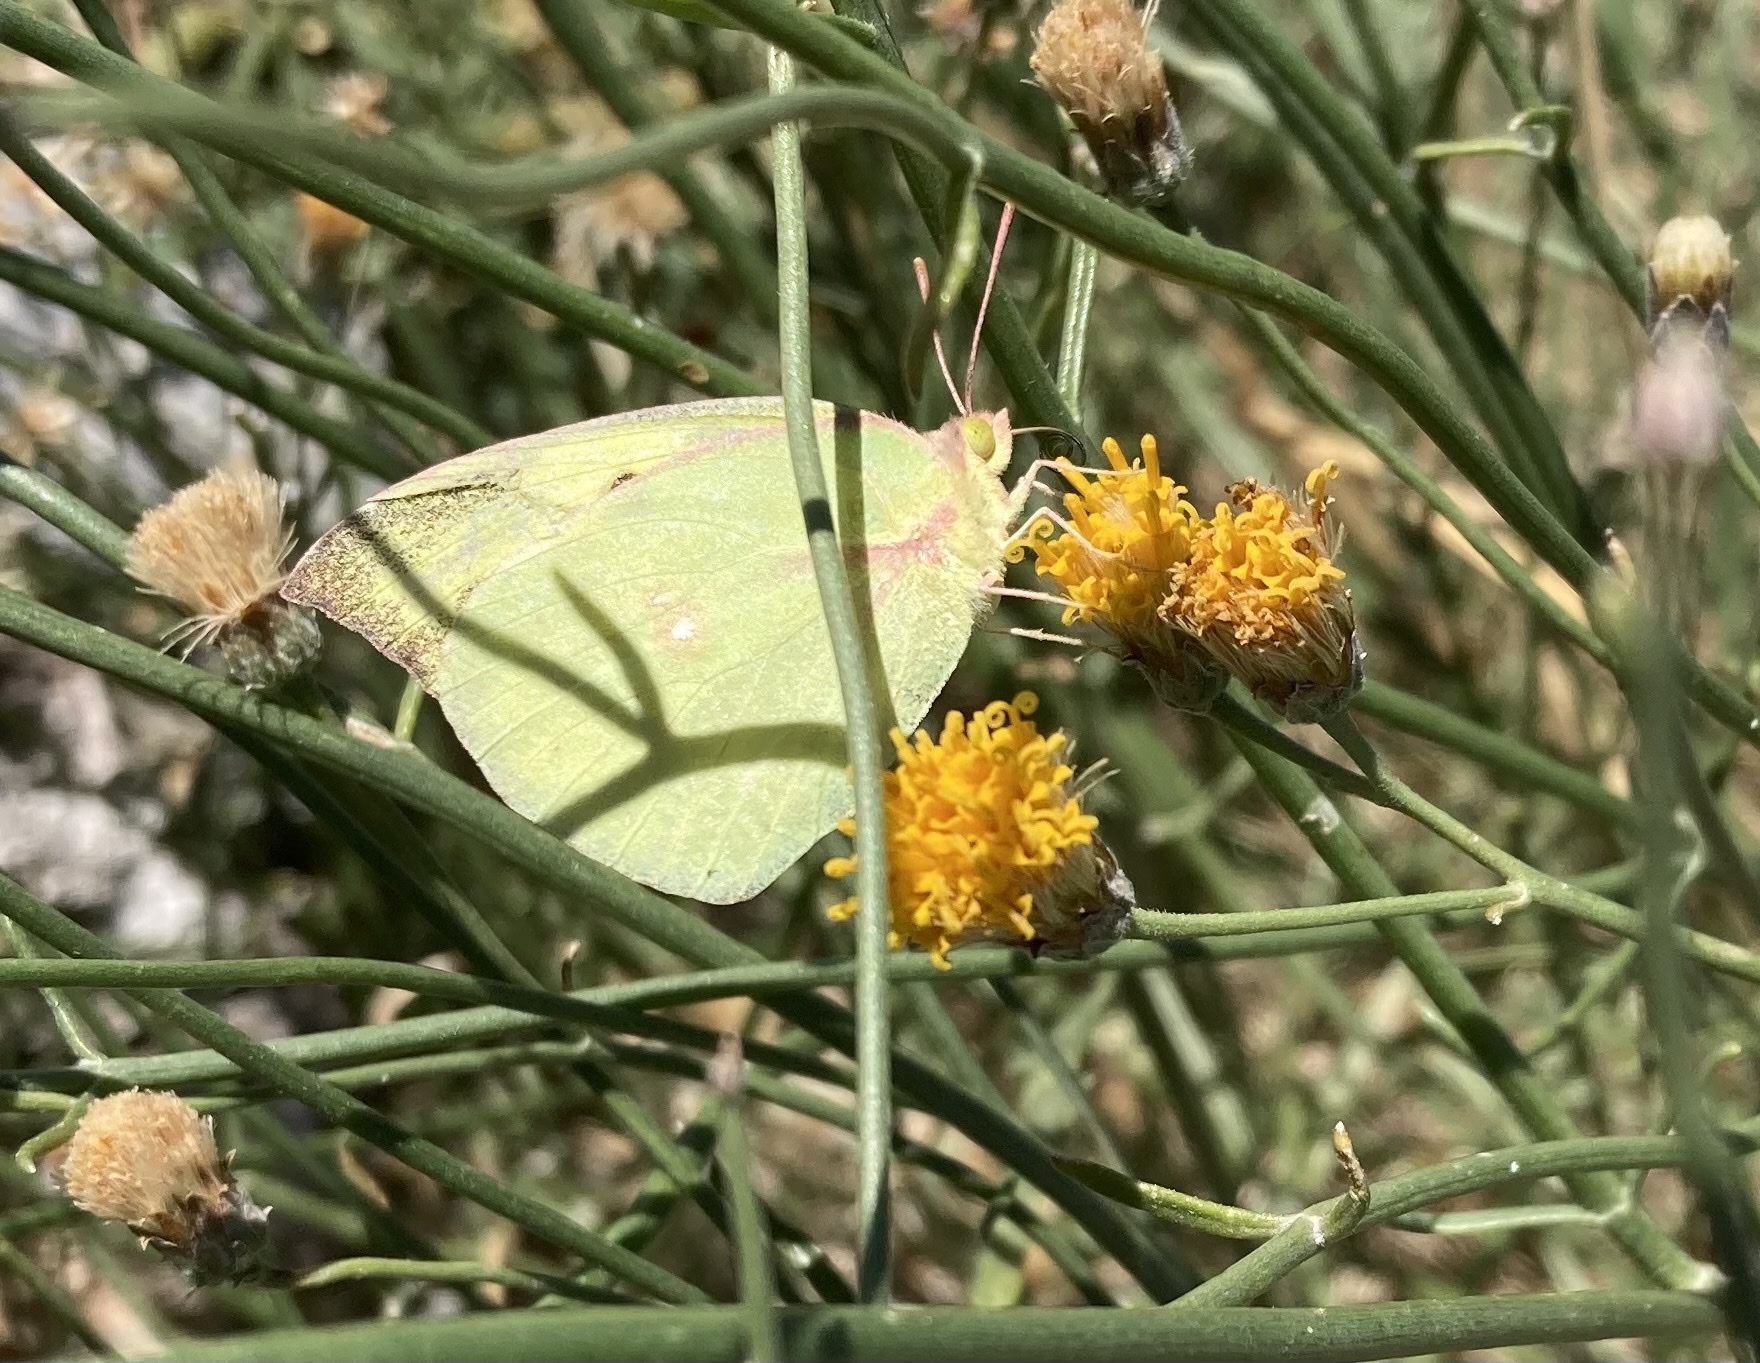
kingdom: Animalia
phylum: Arthropoda
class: Insecta
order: Lepidoptera
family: Pieridae
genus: Zerene
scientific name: Zerene cesonia
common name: Southern dogface
